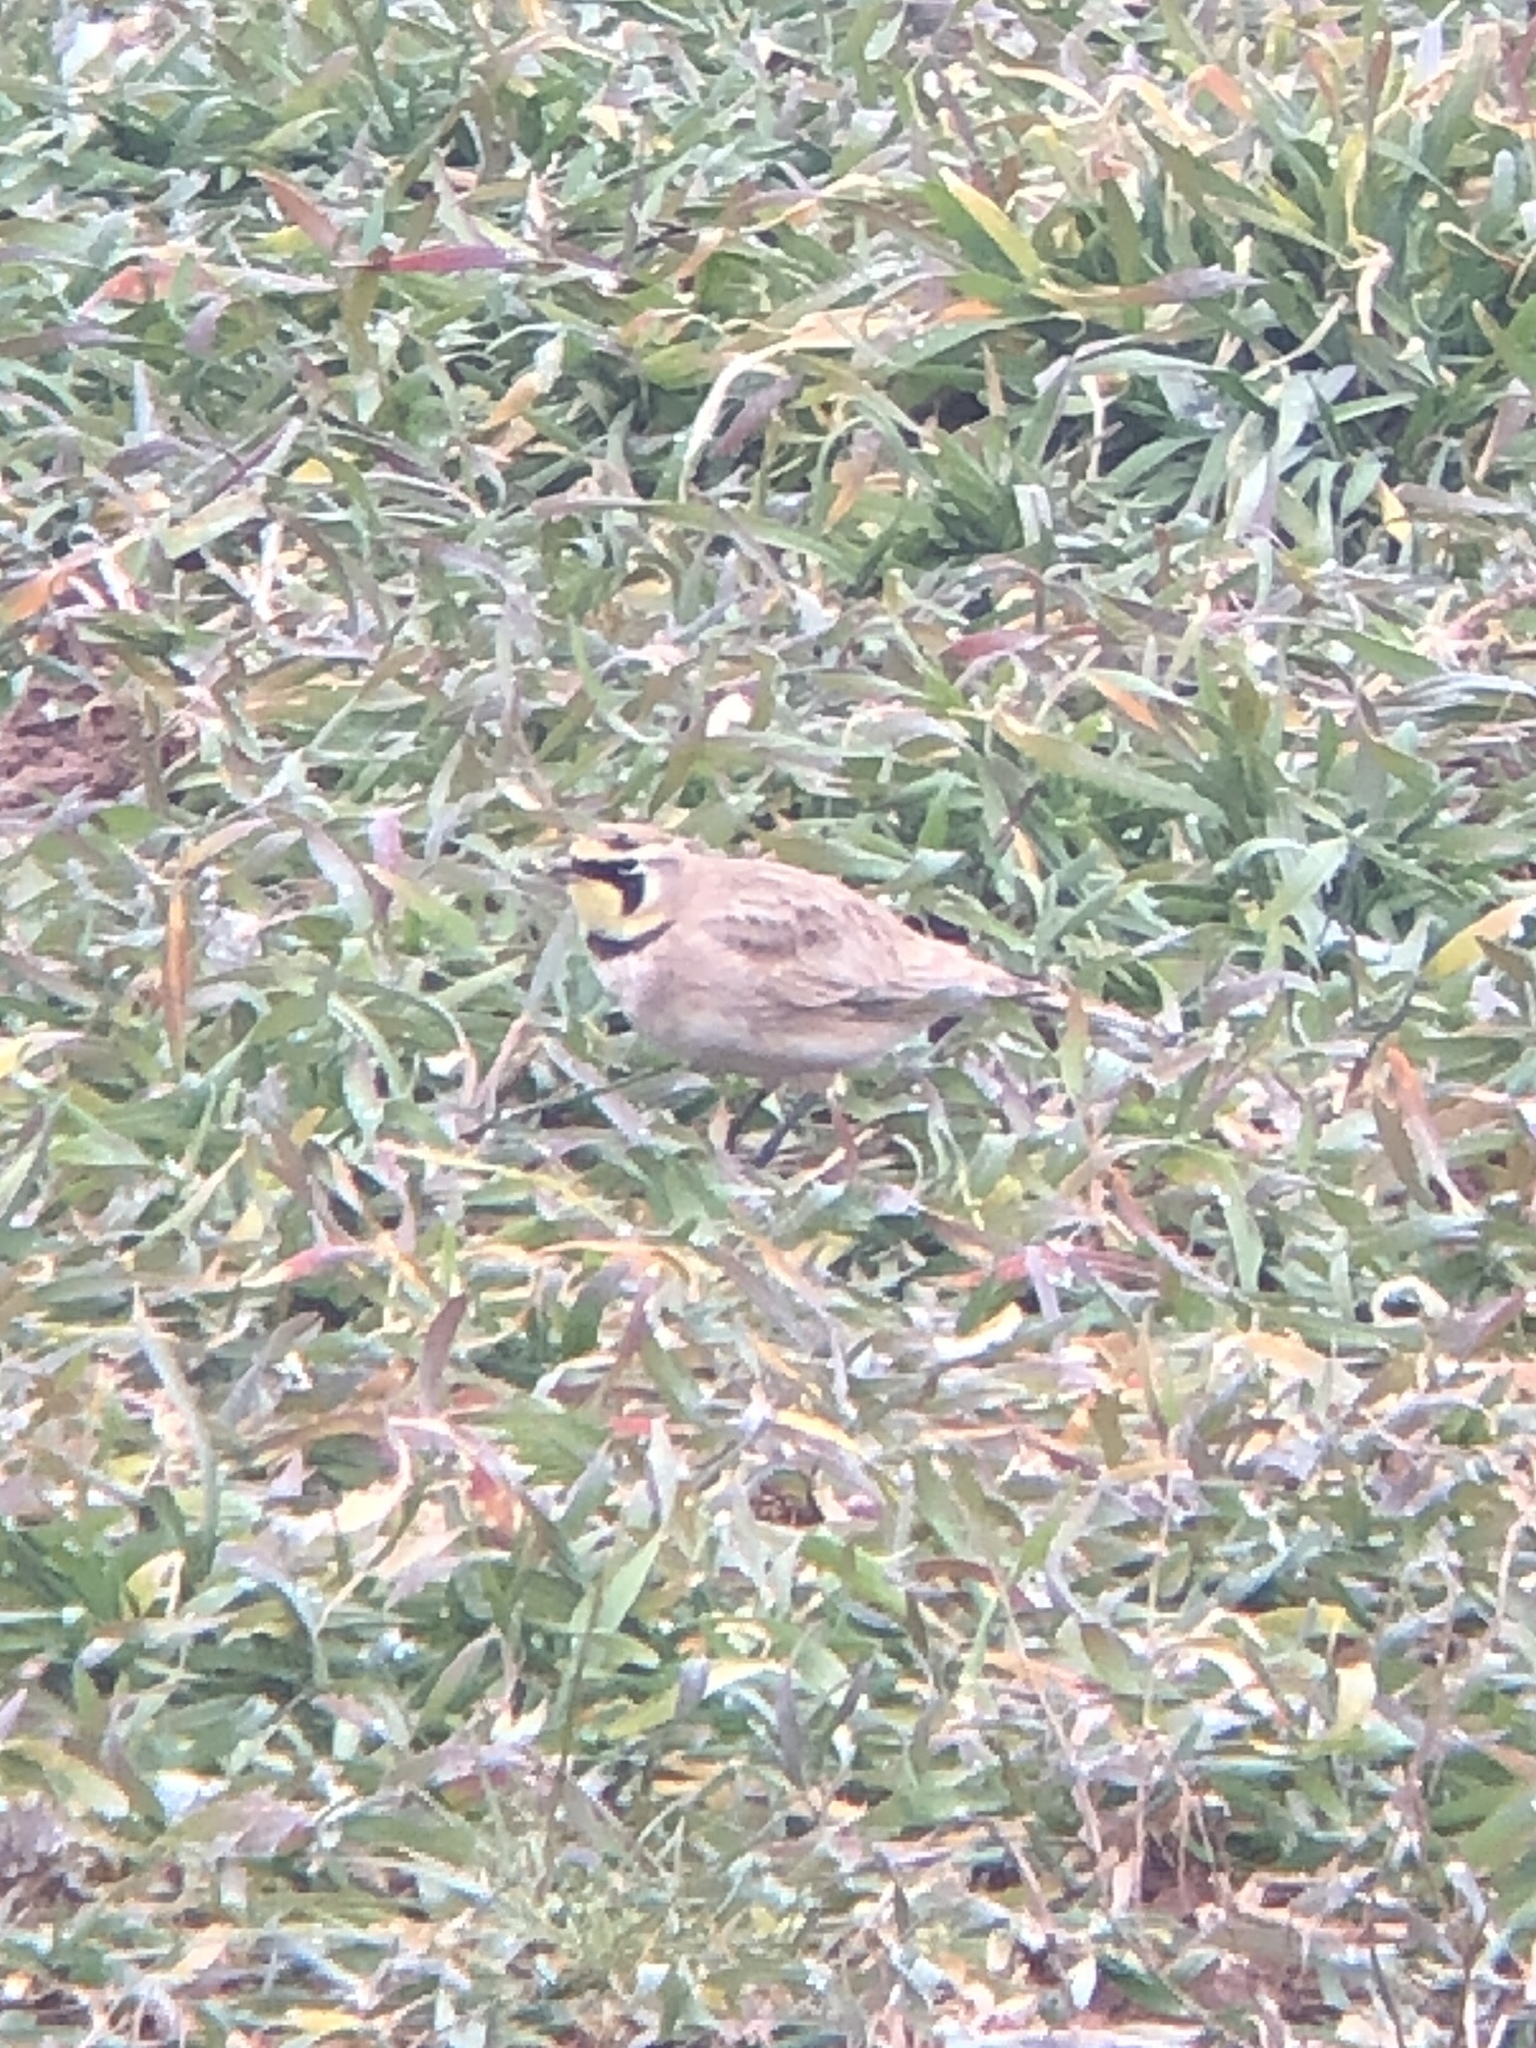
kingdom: Animalia
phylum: Chordata
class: Aves
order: Passeriformes
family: Alaudidae
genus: Eremophila
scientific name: Eremophila alpestris
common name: Horned lark
